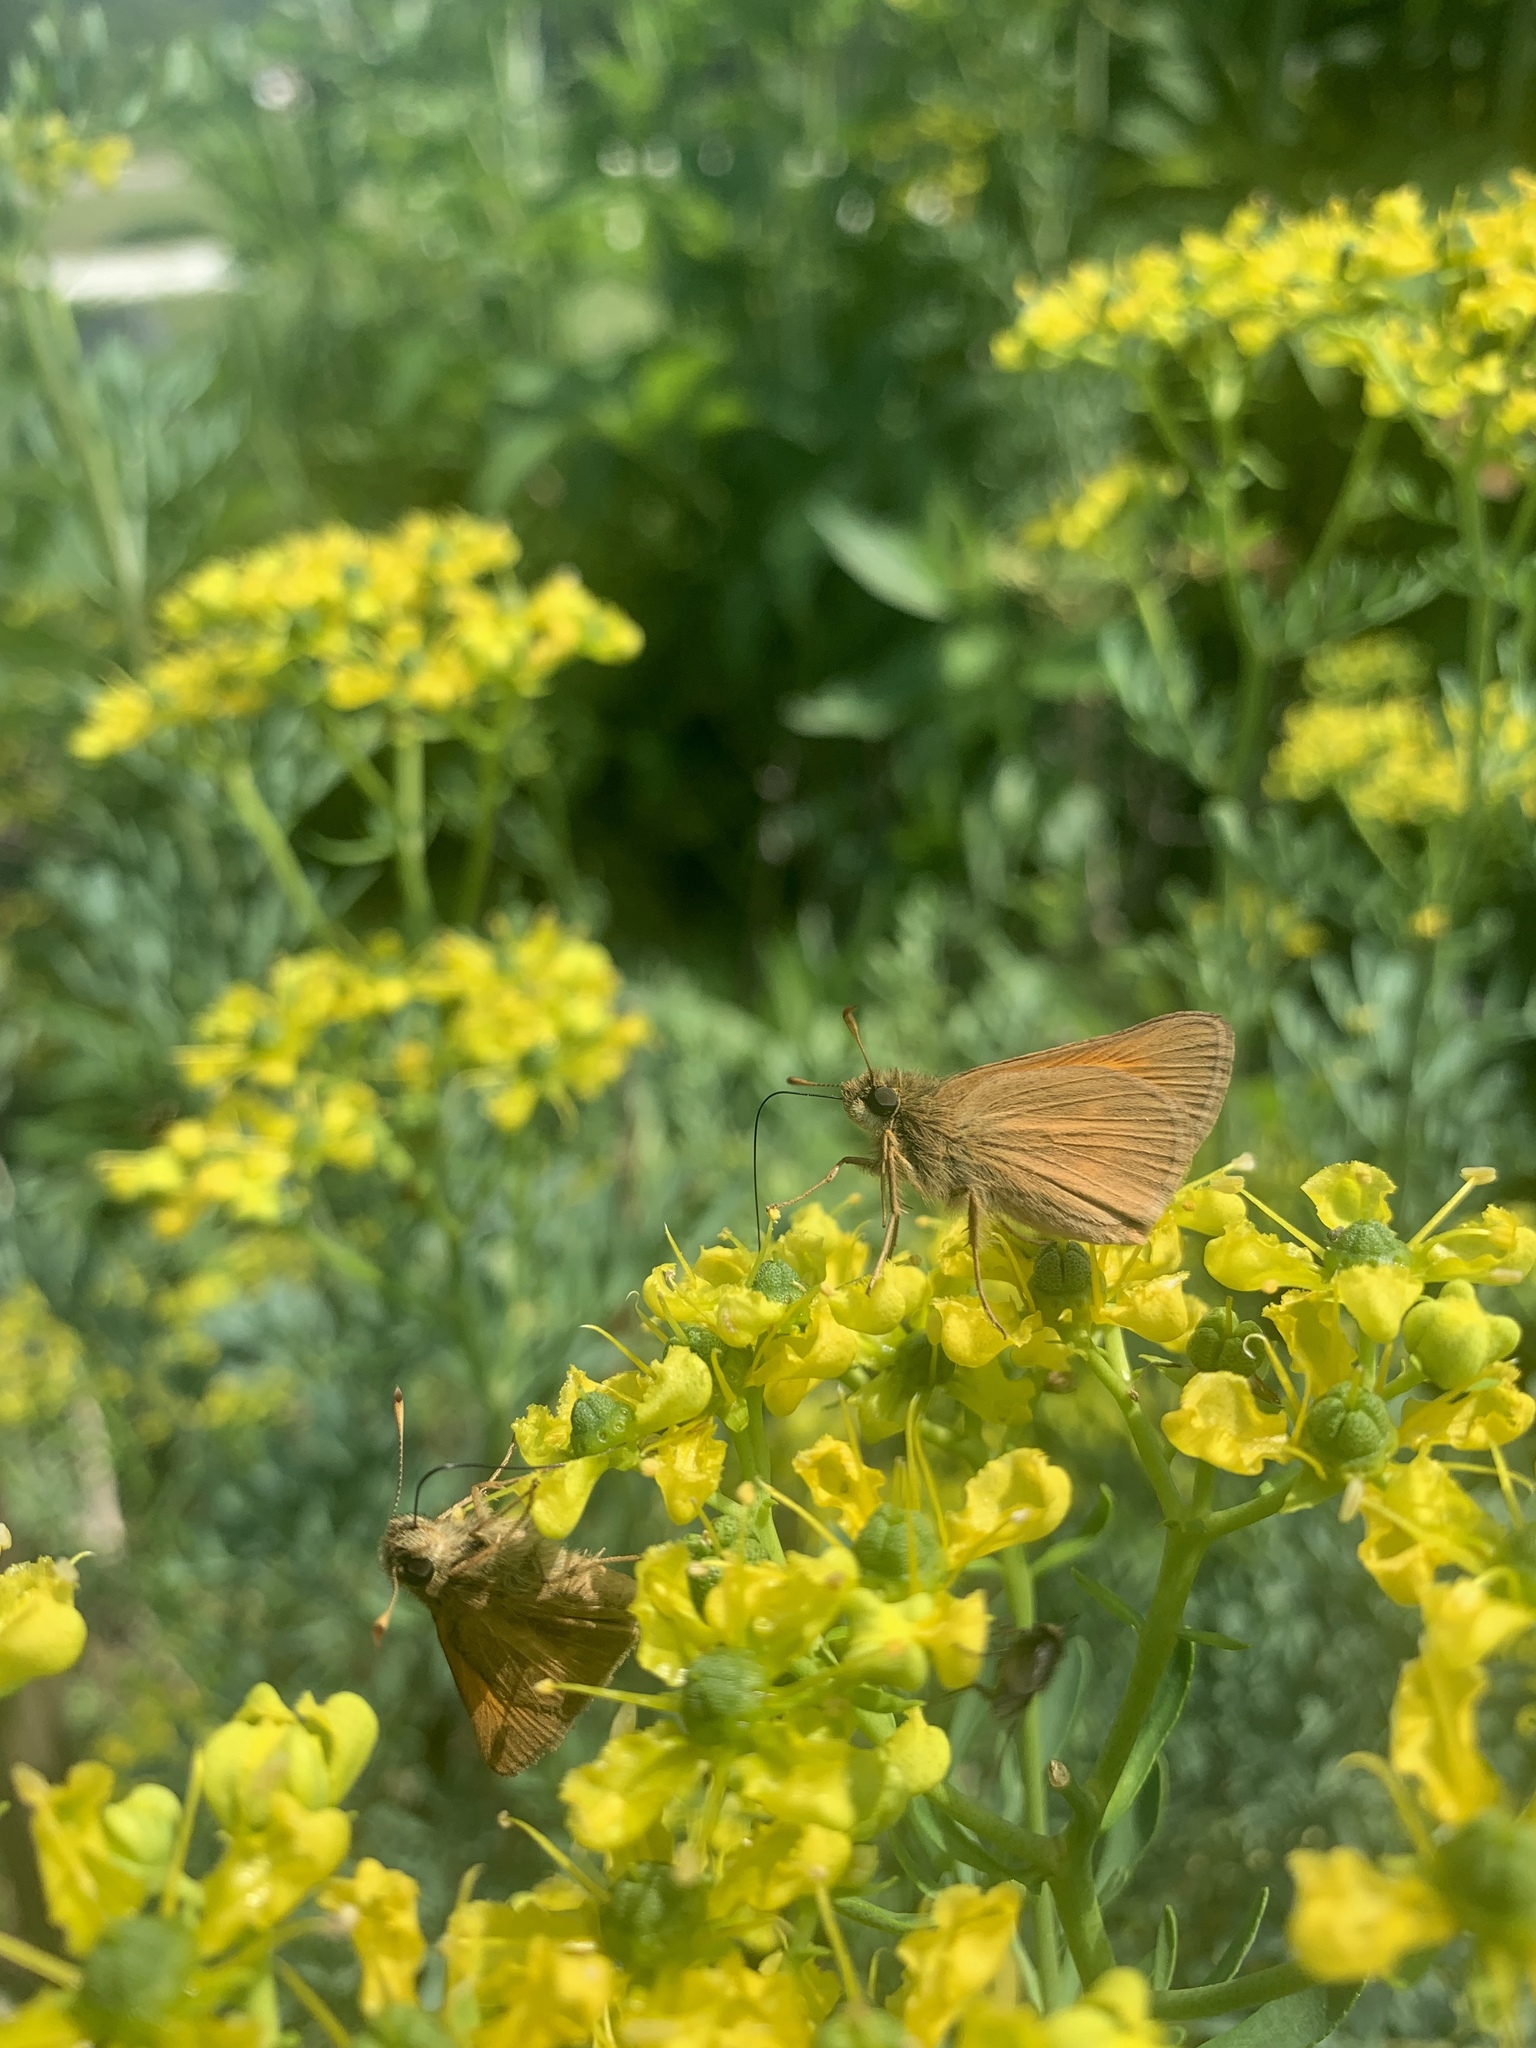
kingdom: Animalia
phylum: Arthropoda
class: Insecta
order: Lepidoptera
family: Hesperiidae
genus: Poanes
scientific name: Poanes aaroni
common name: Aaron's skipper
